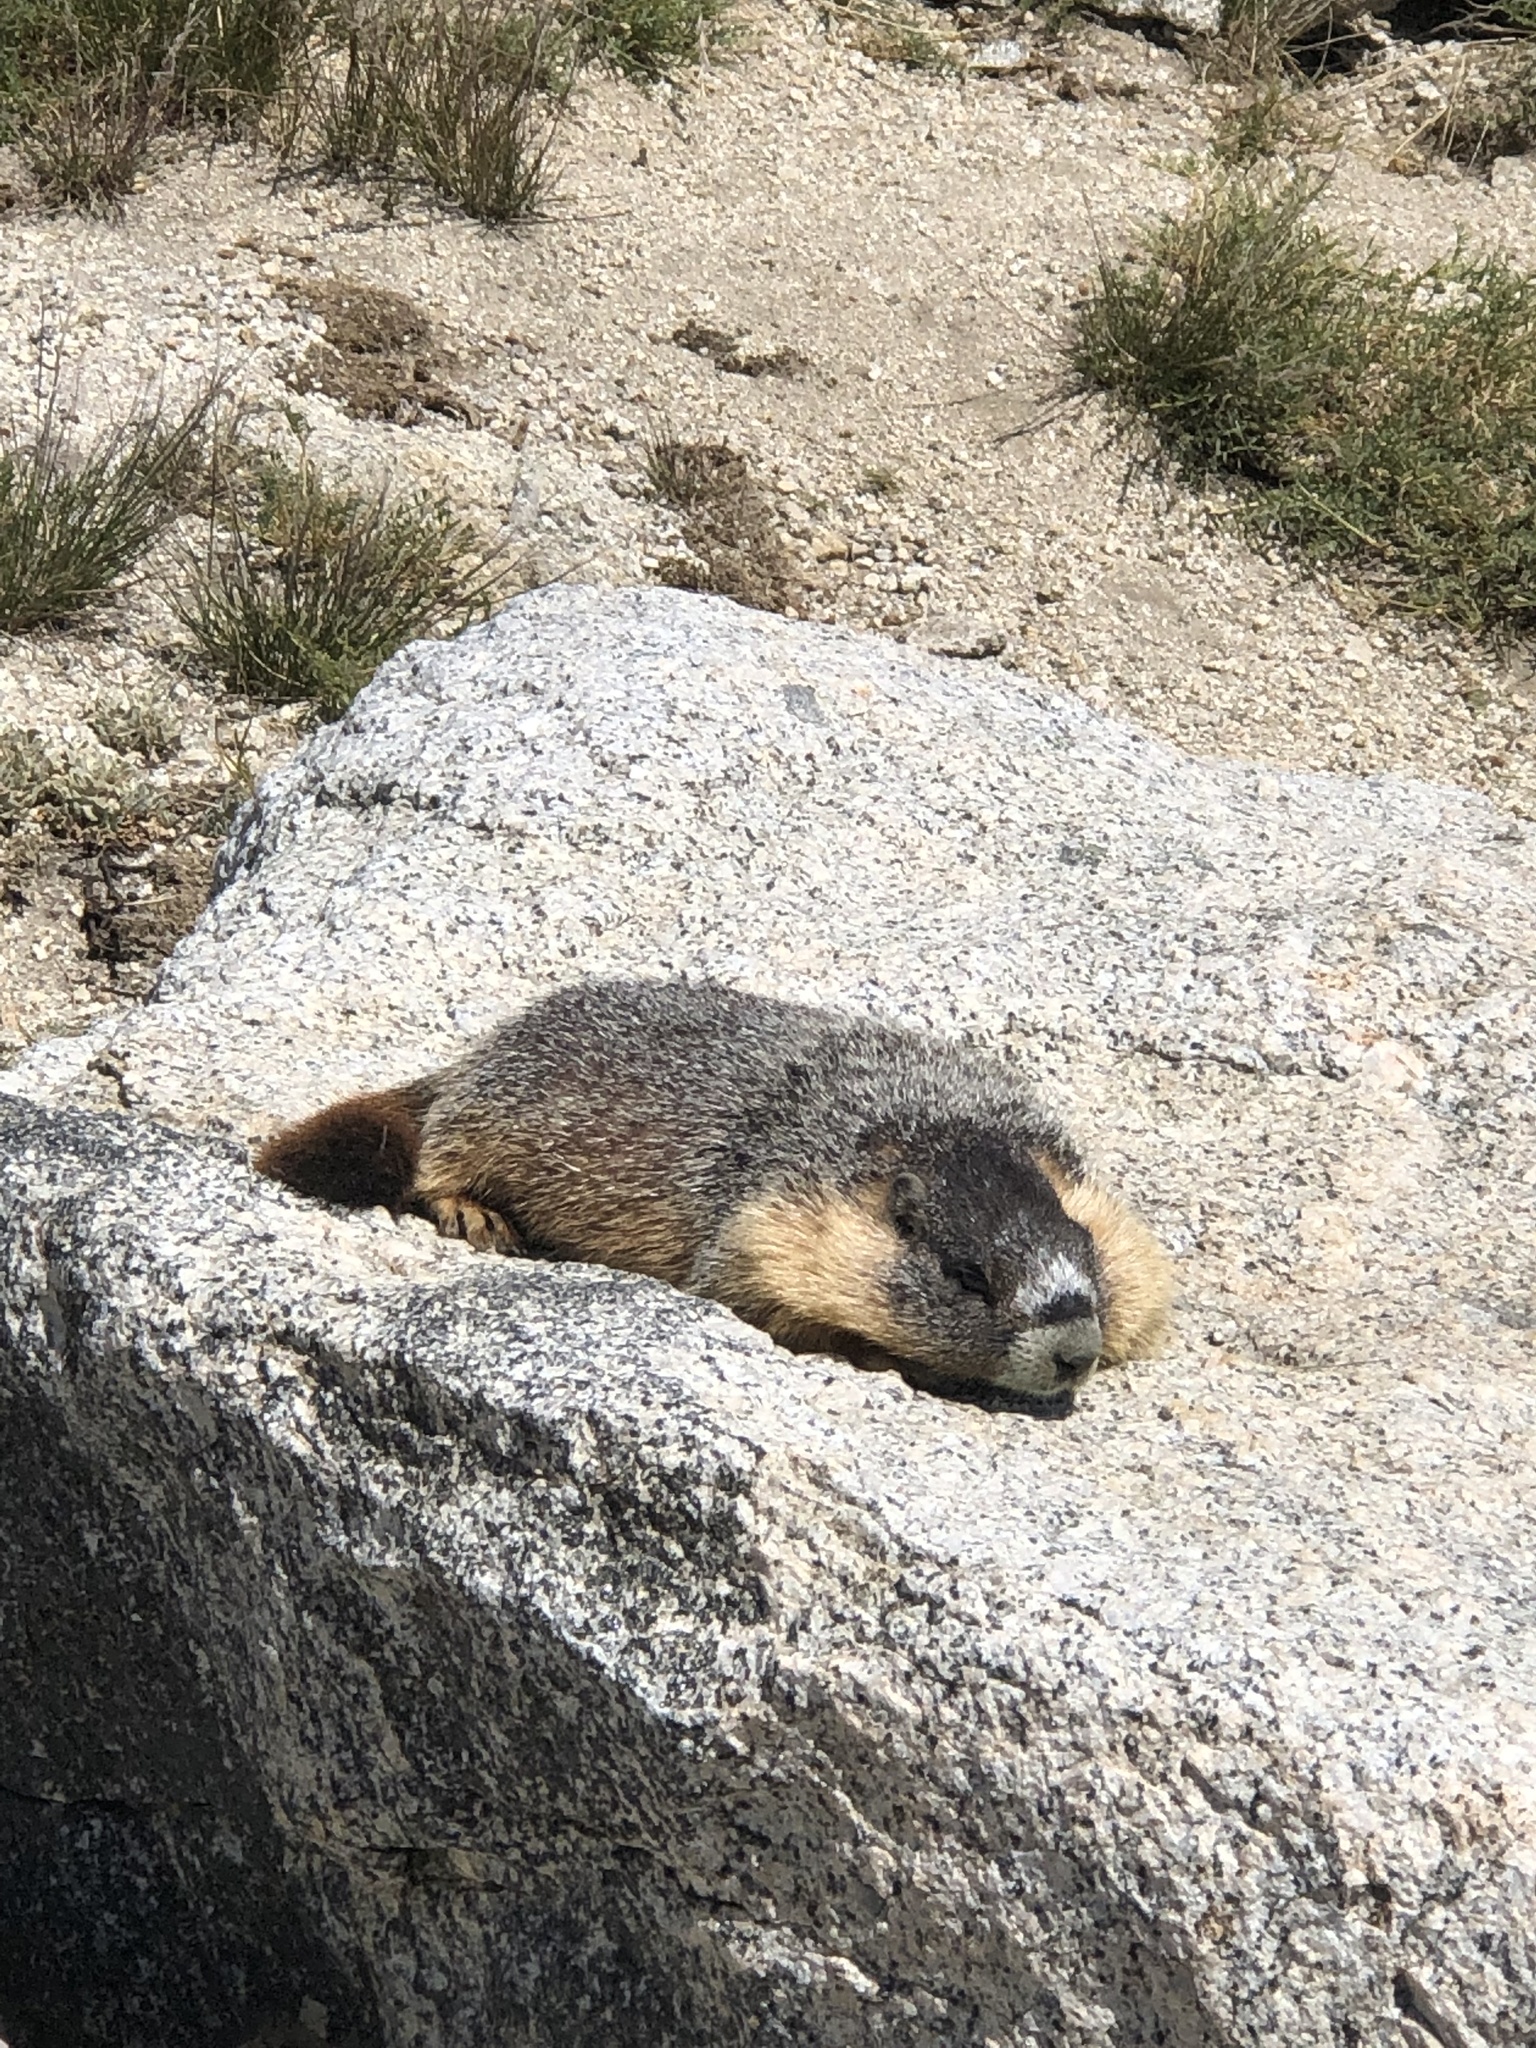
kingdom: Animalia
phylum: Chordata
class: Mammalia
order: Rodentia
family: Sciuridae
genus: Marmota
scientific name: Marmota flaviventris
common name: Yellow-bellied marmot
